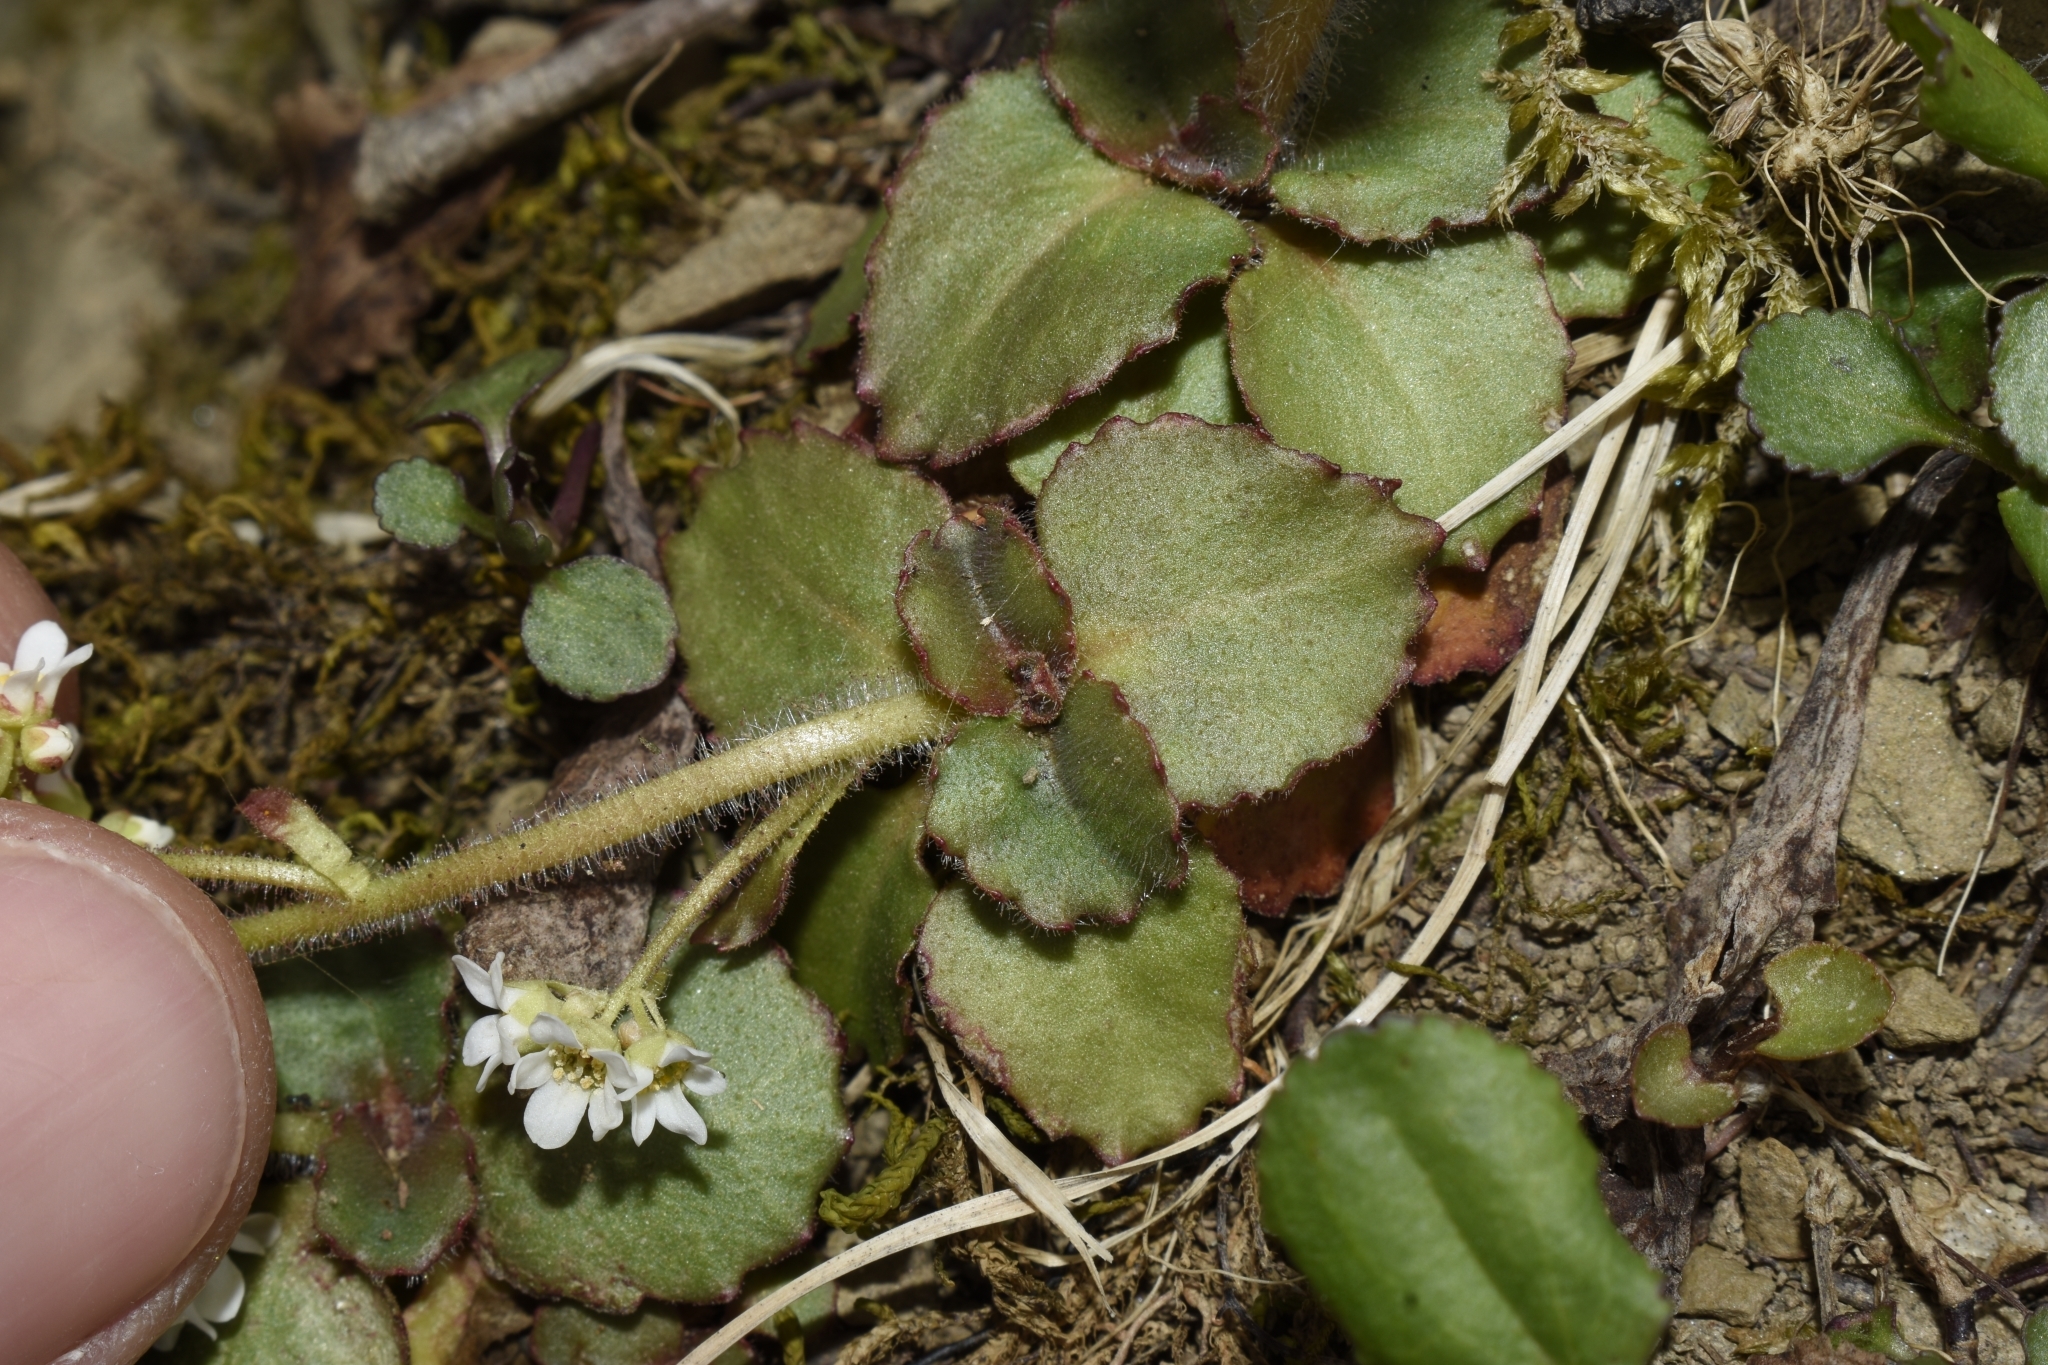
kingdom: Plantae
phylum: Tracheophyta
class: Magnoliopsida
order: Saxifragales
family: Saxifragaceae
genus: Micranthes
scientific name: Micranthes virginiensis
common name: Early saxifrage
